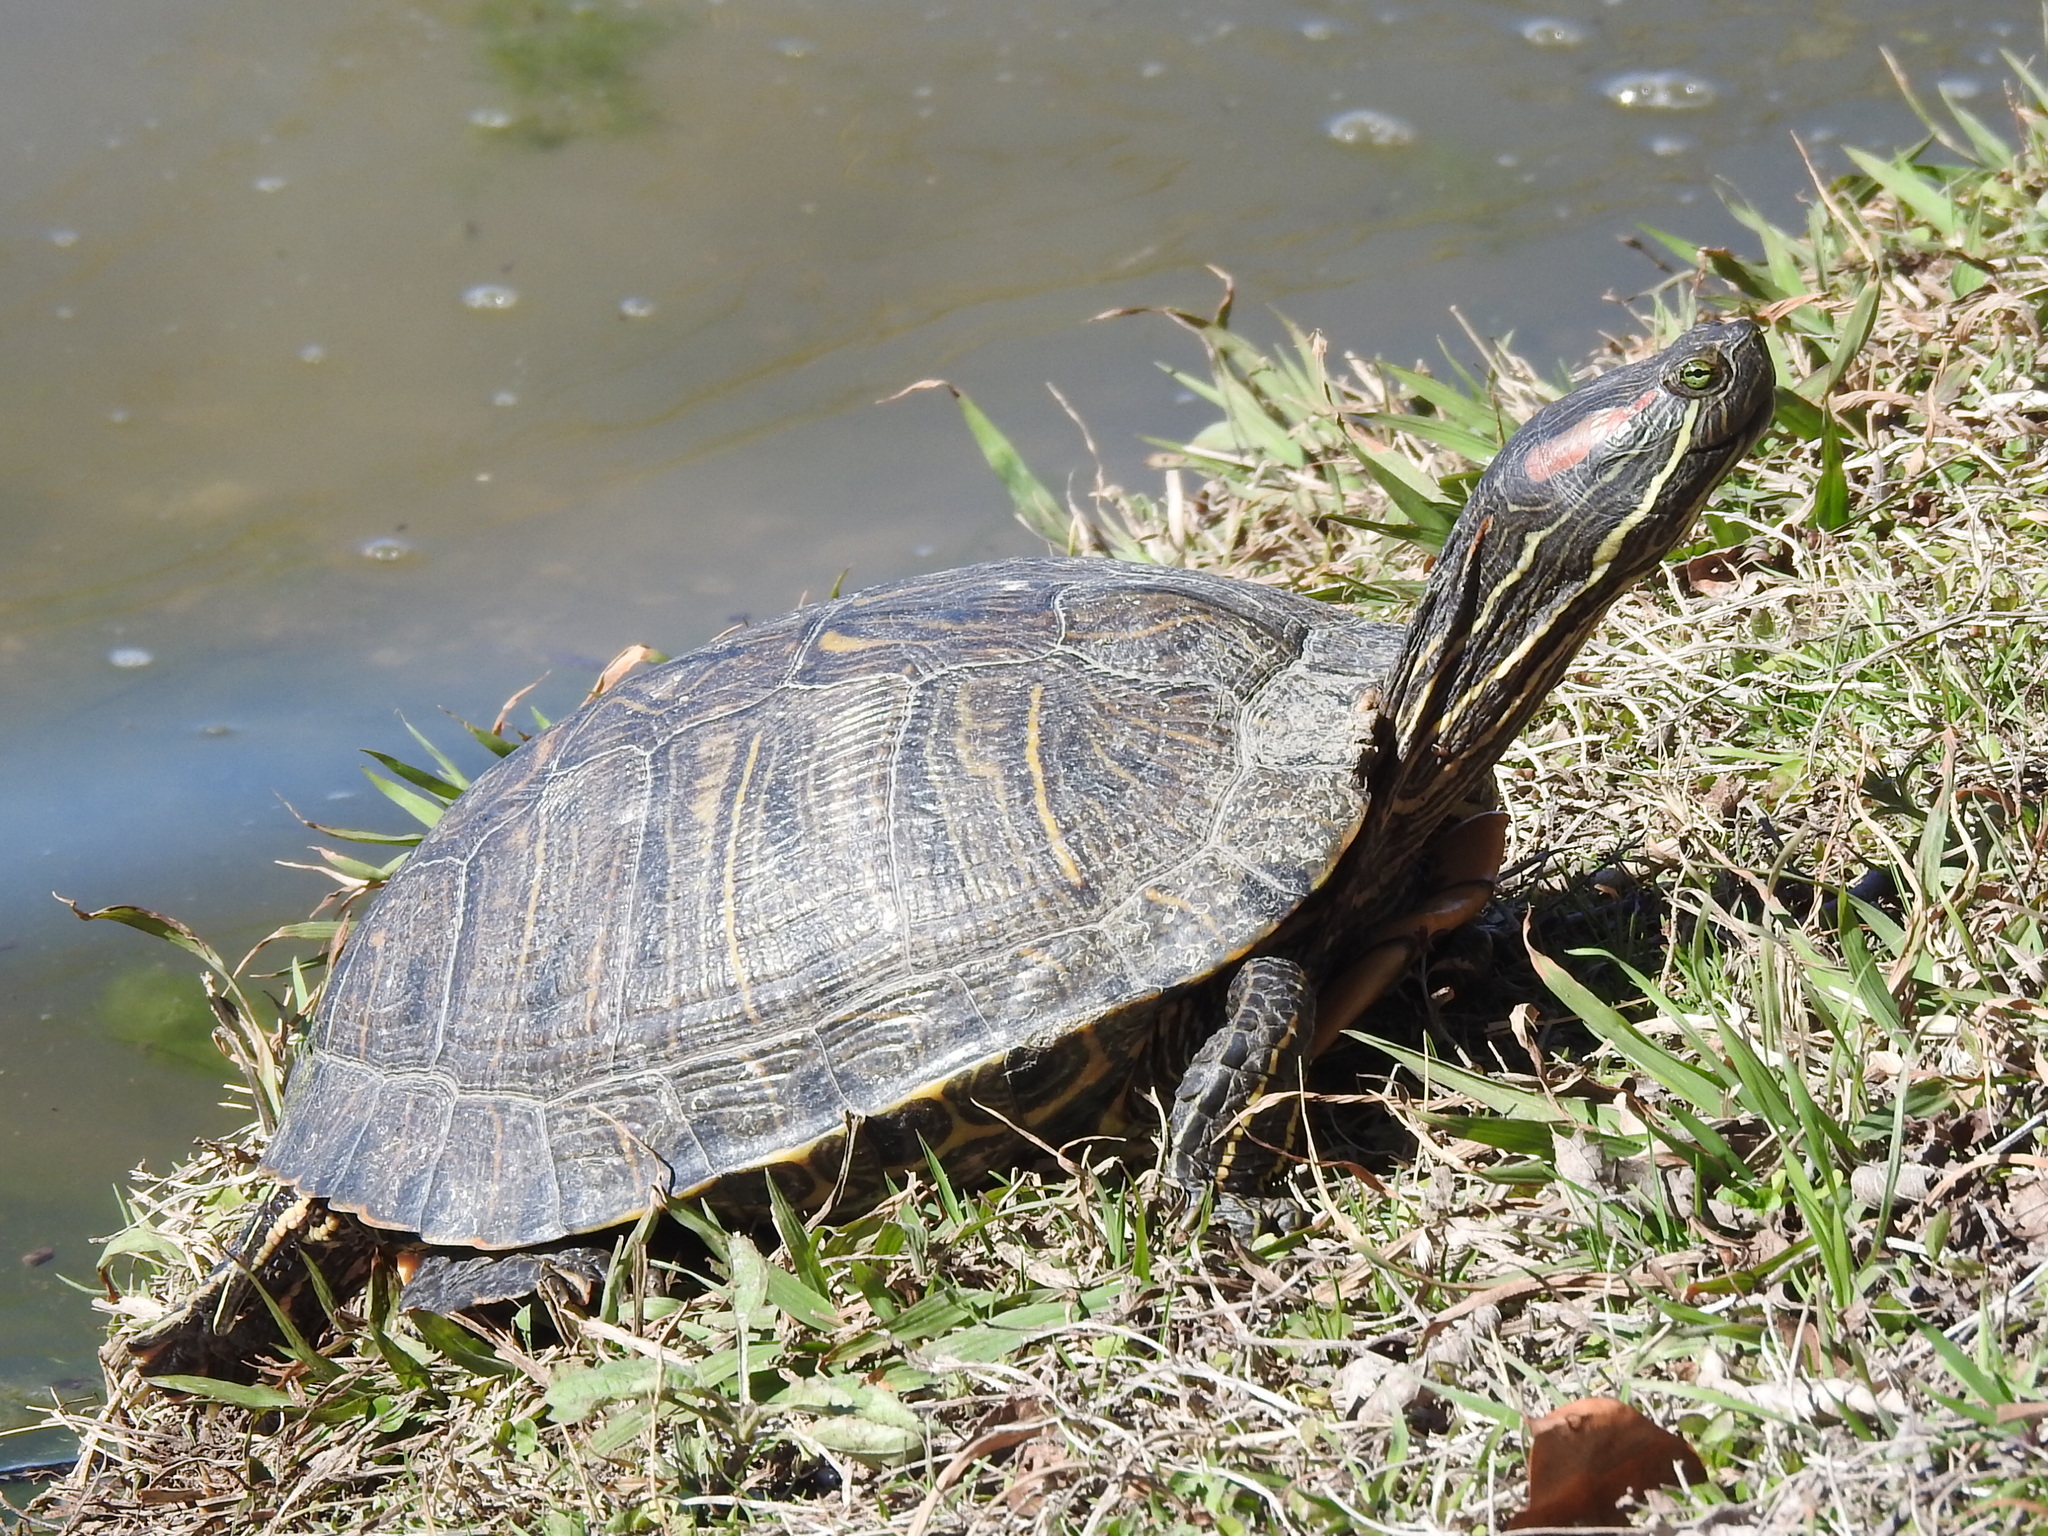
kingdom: Animalia
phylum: Chordata
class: Testudines
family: Emydidae
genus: Trachemys
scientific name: Trachemys scripta
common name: Slider
